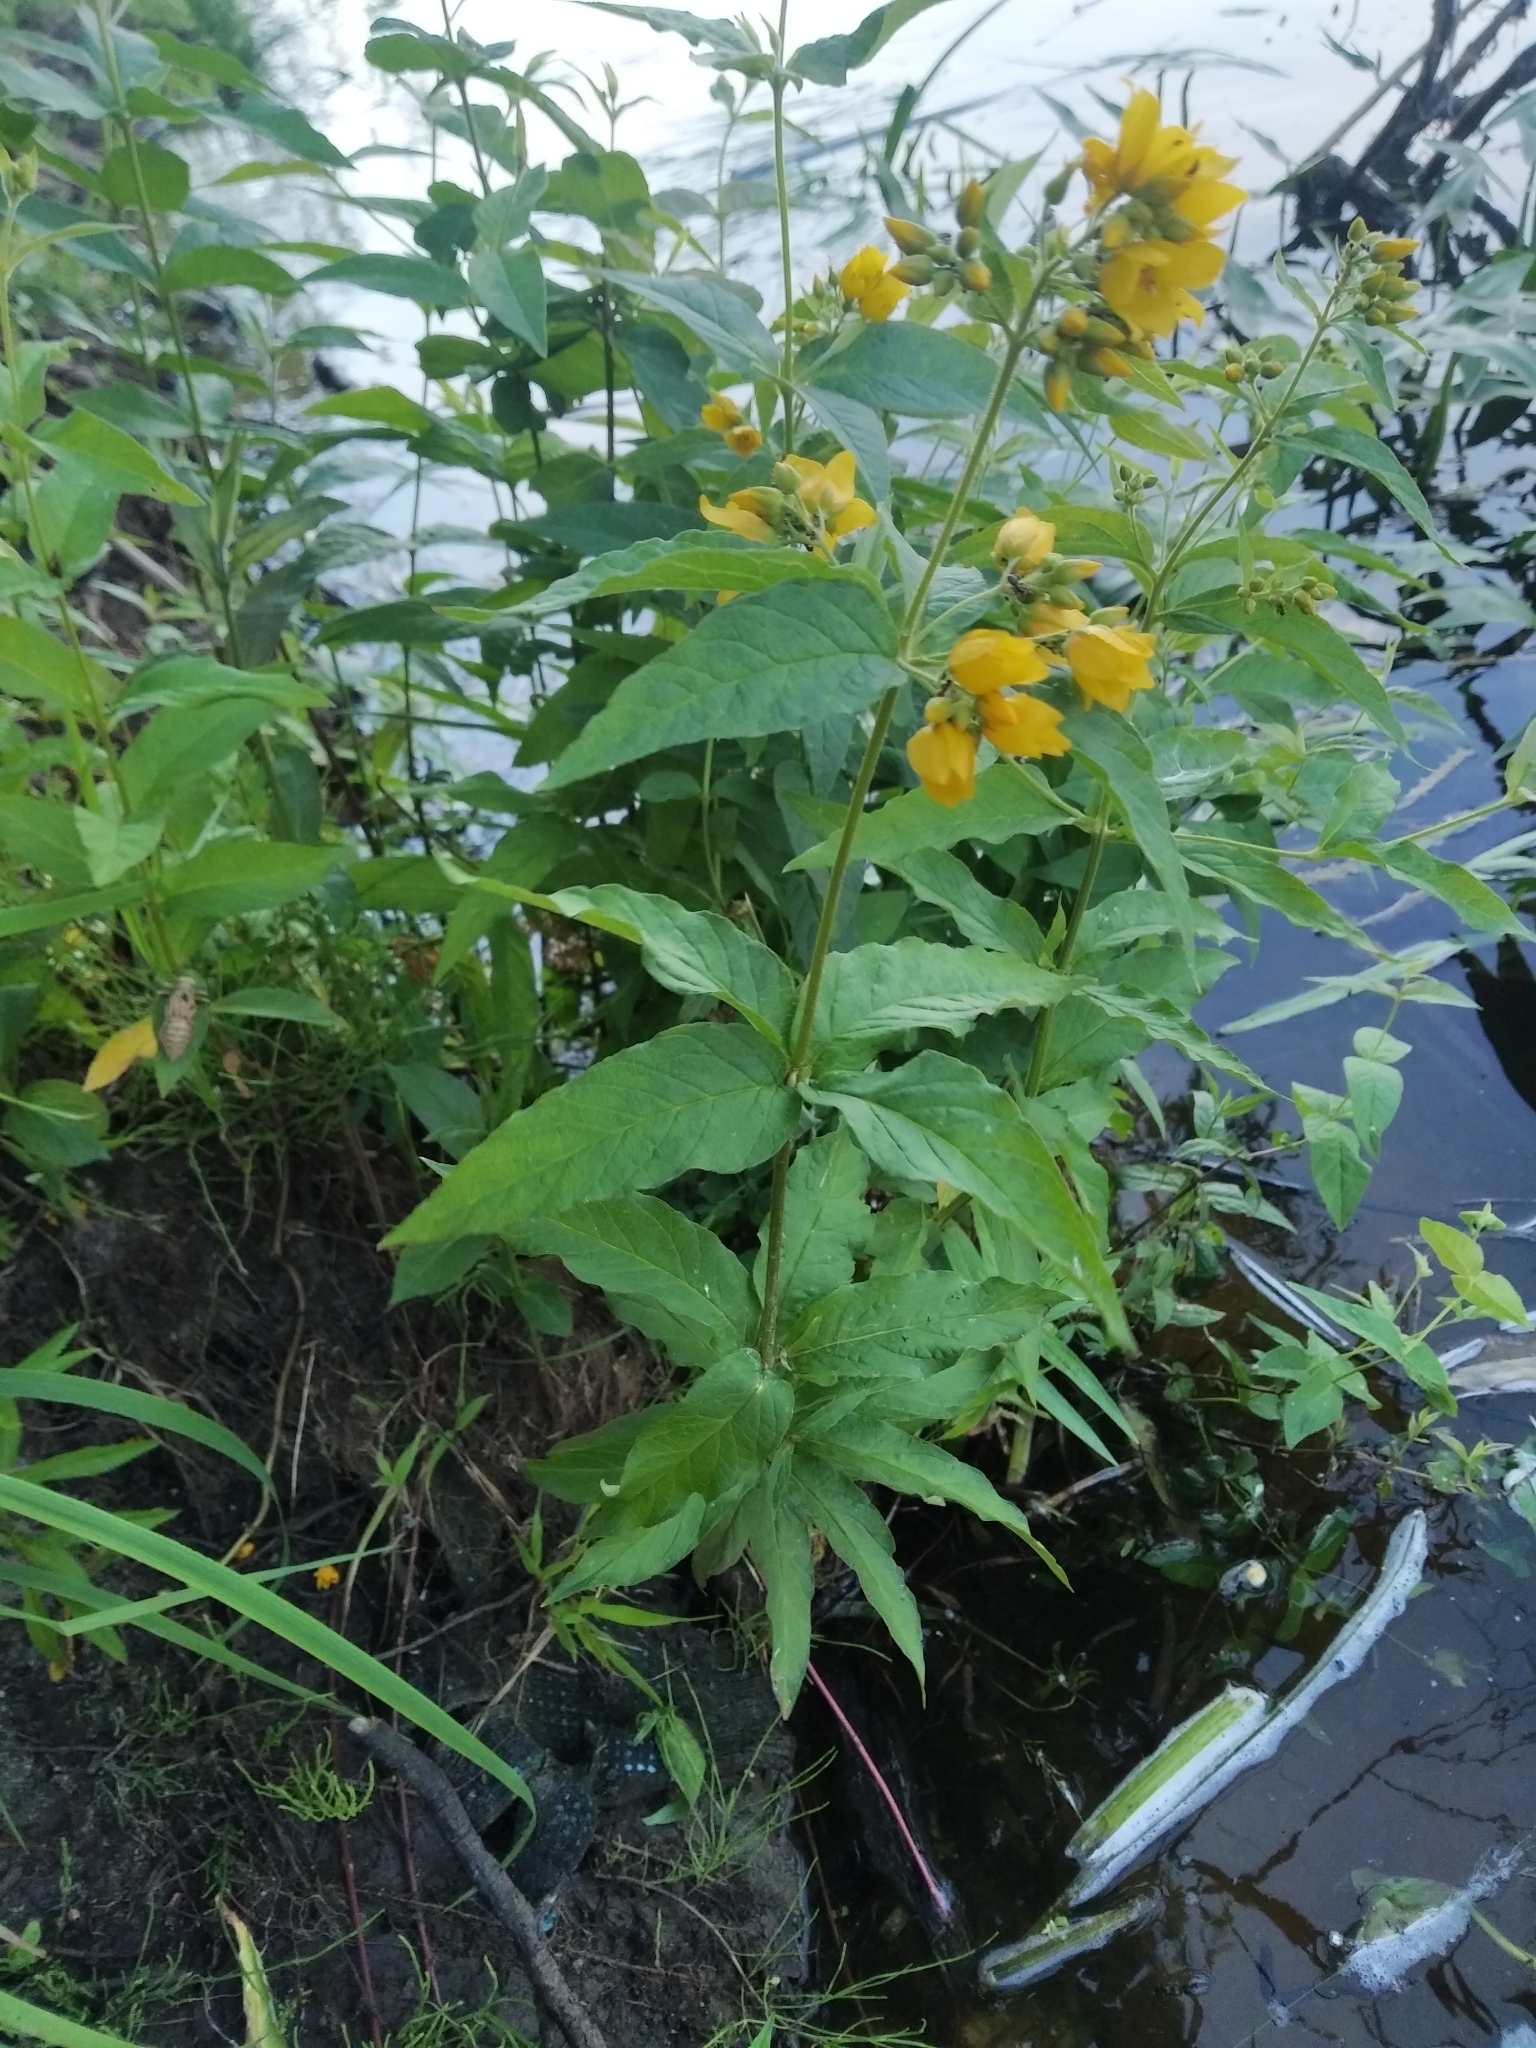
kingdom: Plantae
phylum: Tracheophyta
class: Magnoliopsida
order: Ericales
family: Primulaceae
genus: Lysimachia
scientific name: Lysimachia vulgaris
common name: Yellow loosestrife
